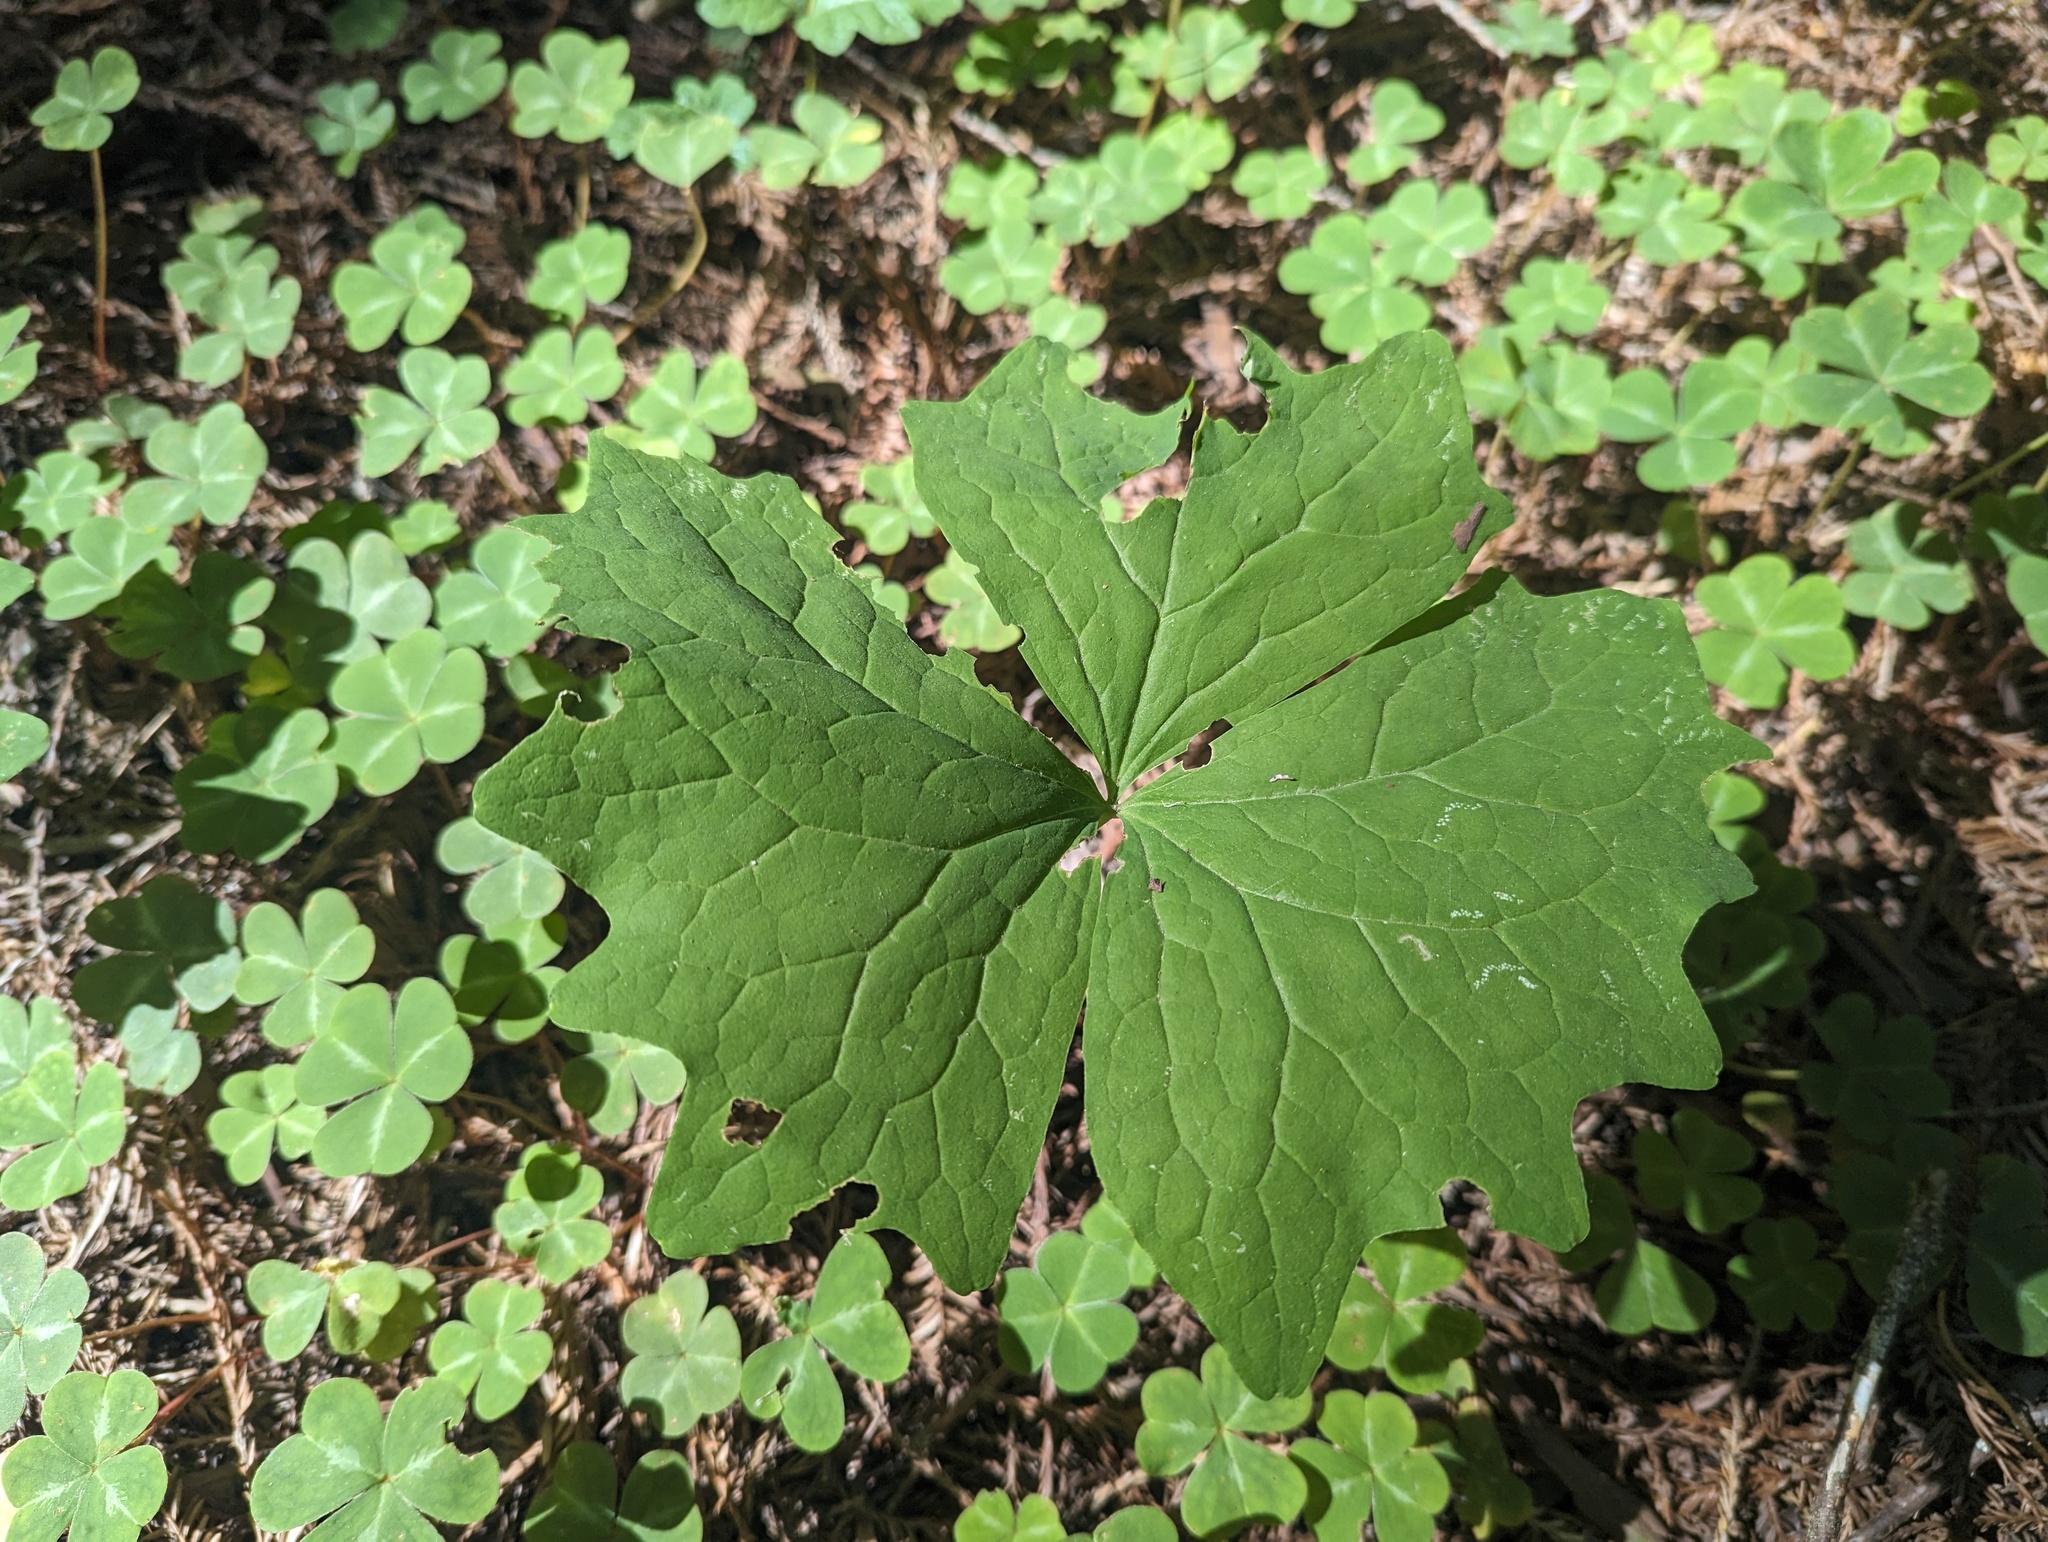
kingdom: Plantae
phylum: Tracheophyta
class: Magnoliopsida
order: Ranunculales
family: Berberidaceae
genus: Achlys
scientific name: Achlys triphylla
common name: Vanilla-leaf
